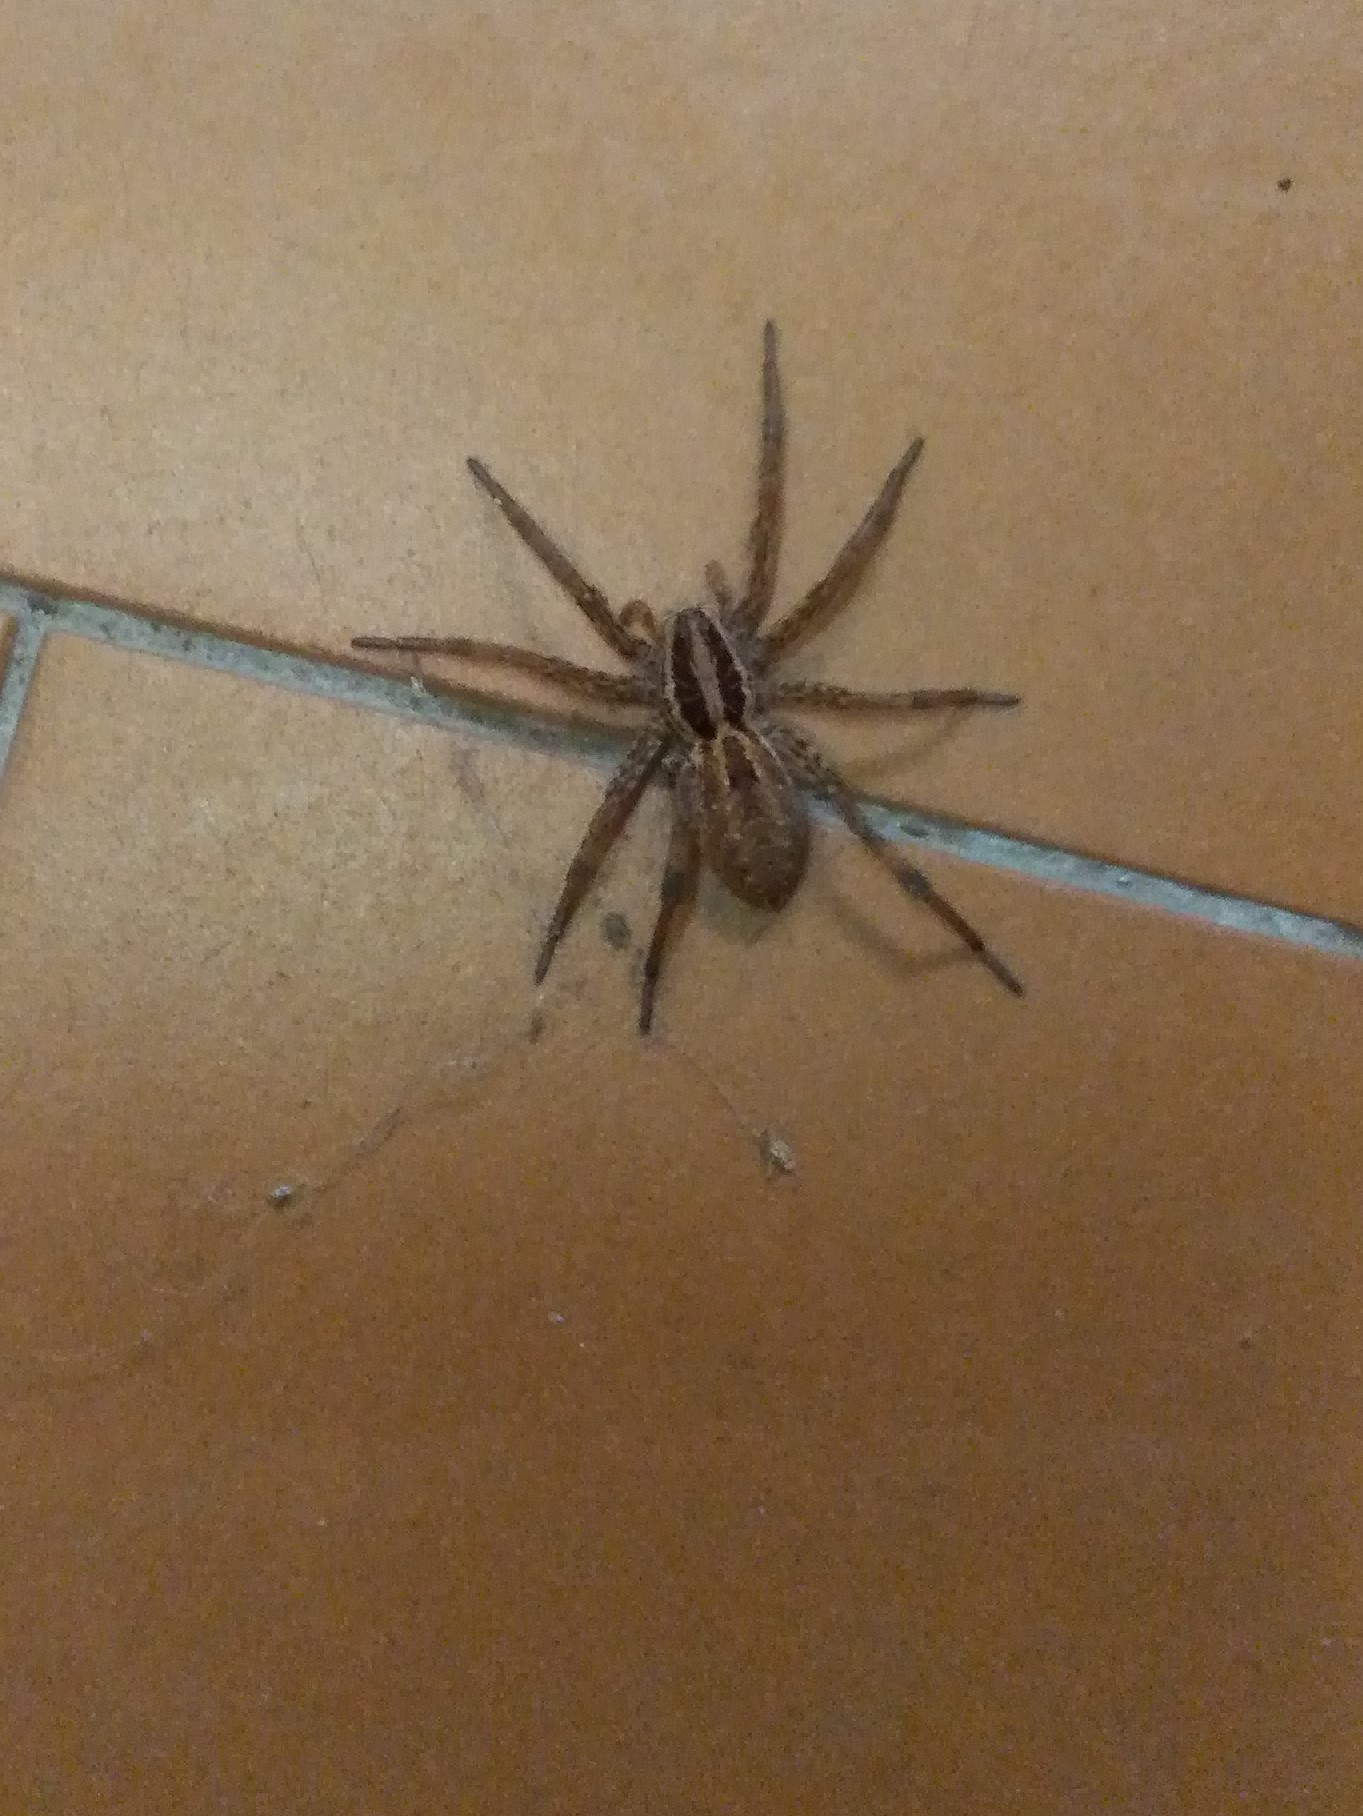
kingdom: Animalia
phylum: Arthropoda
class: Arachnida
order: Araneae
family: Lycosidae
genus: Hogna
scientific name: Hogna radiata
